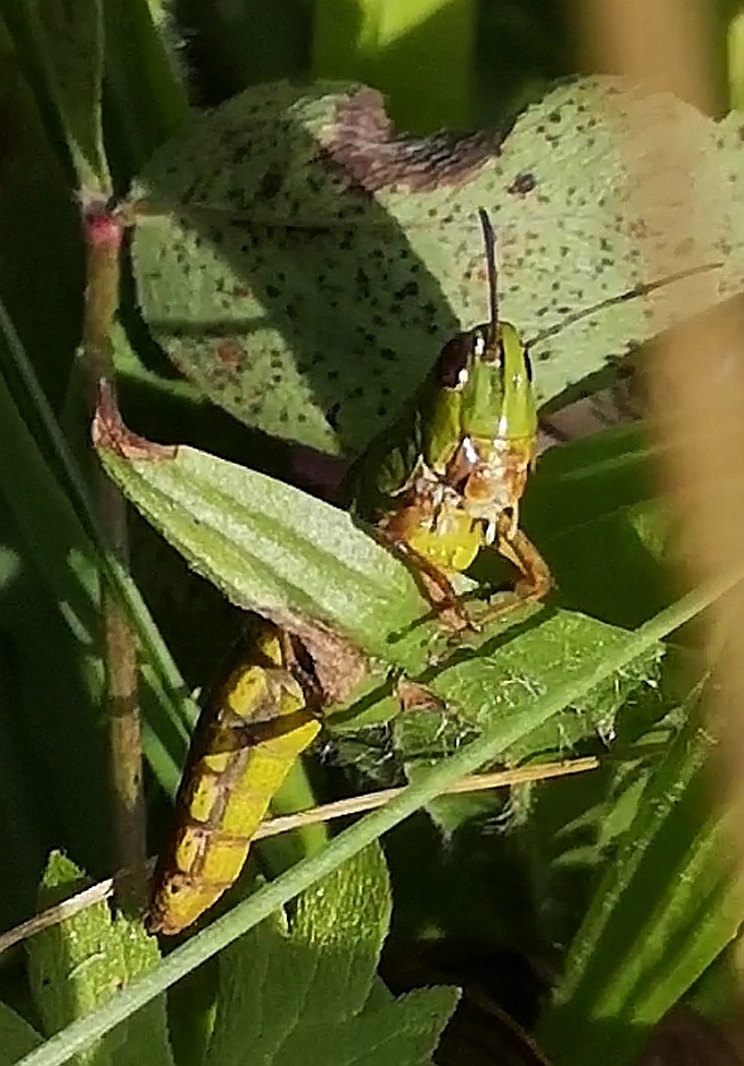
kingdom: Animalia
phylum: Arthropoda
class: Insecta
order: Orthoptera
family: Acrididae
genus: Pseudochorthippus
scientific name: Pseudochorthippus parallelus
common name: Meadow grasshopper
